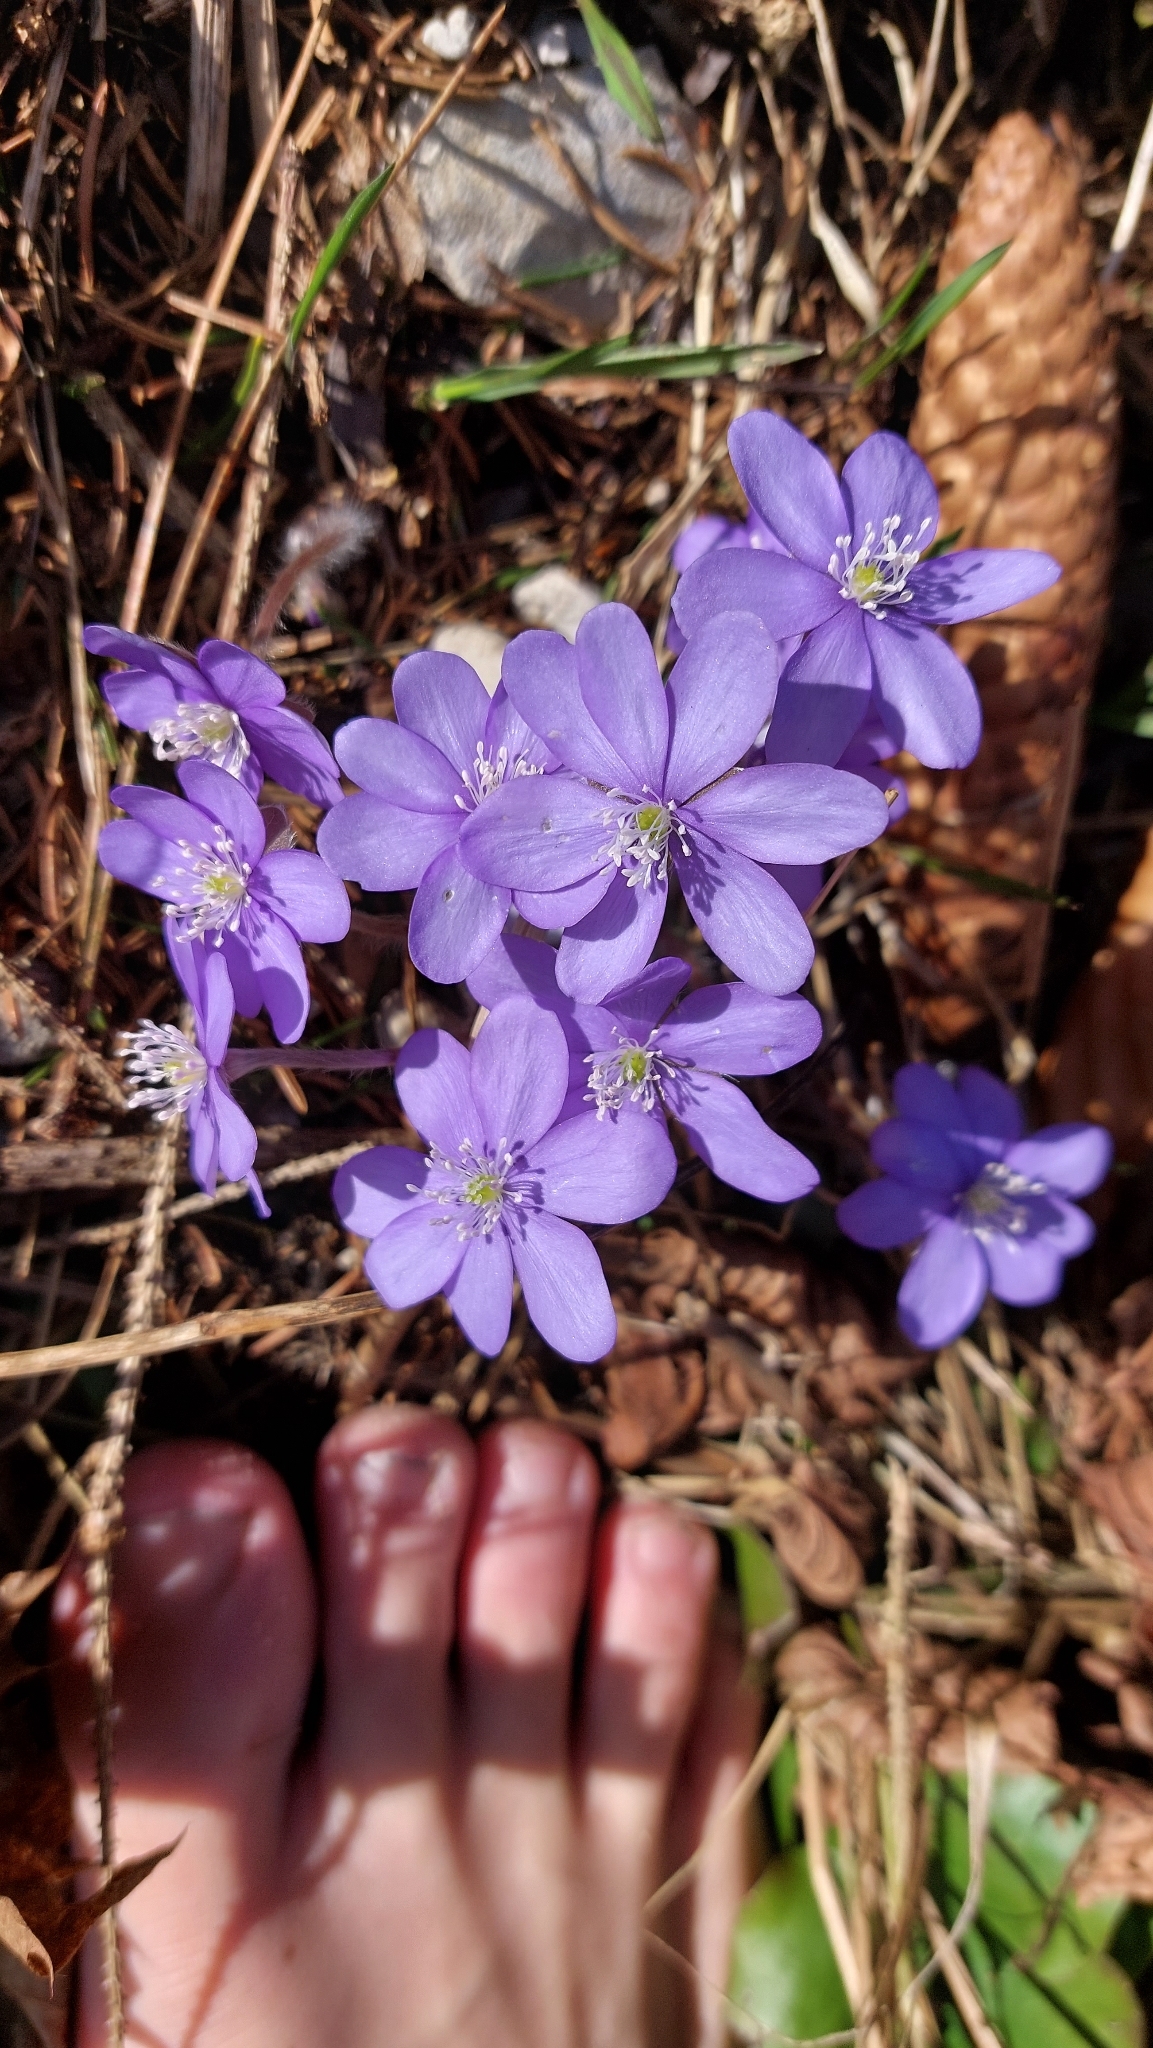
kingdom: Plantae
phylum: Tracheophyta
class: Magnoliopsida
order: Ranunculales
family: Ranunculaceae
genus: Hepatica
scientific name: Hepatica nobilis
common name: Liverleaf
